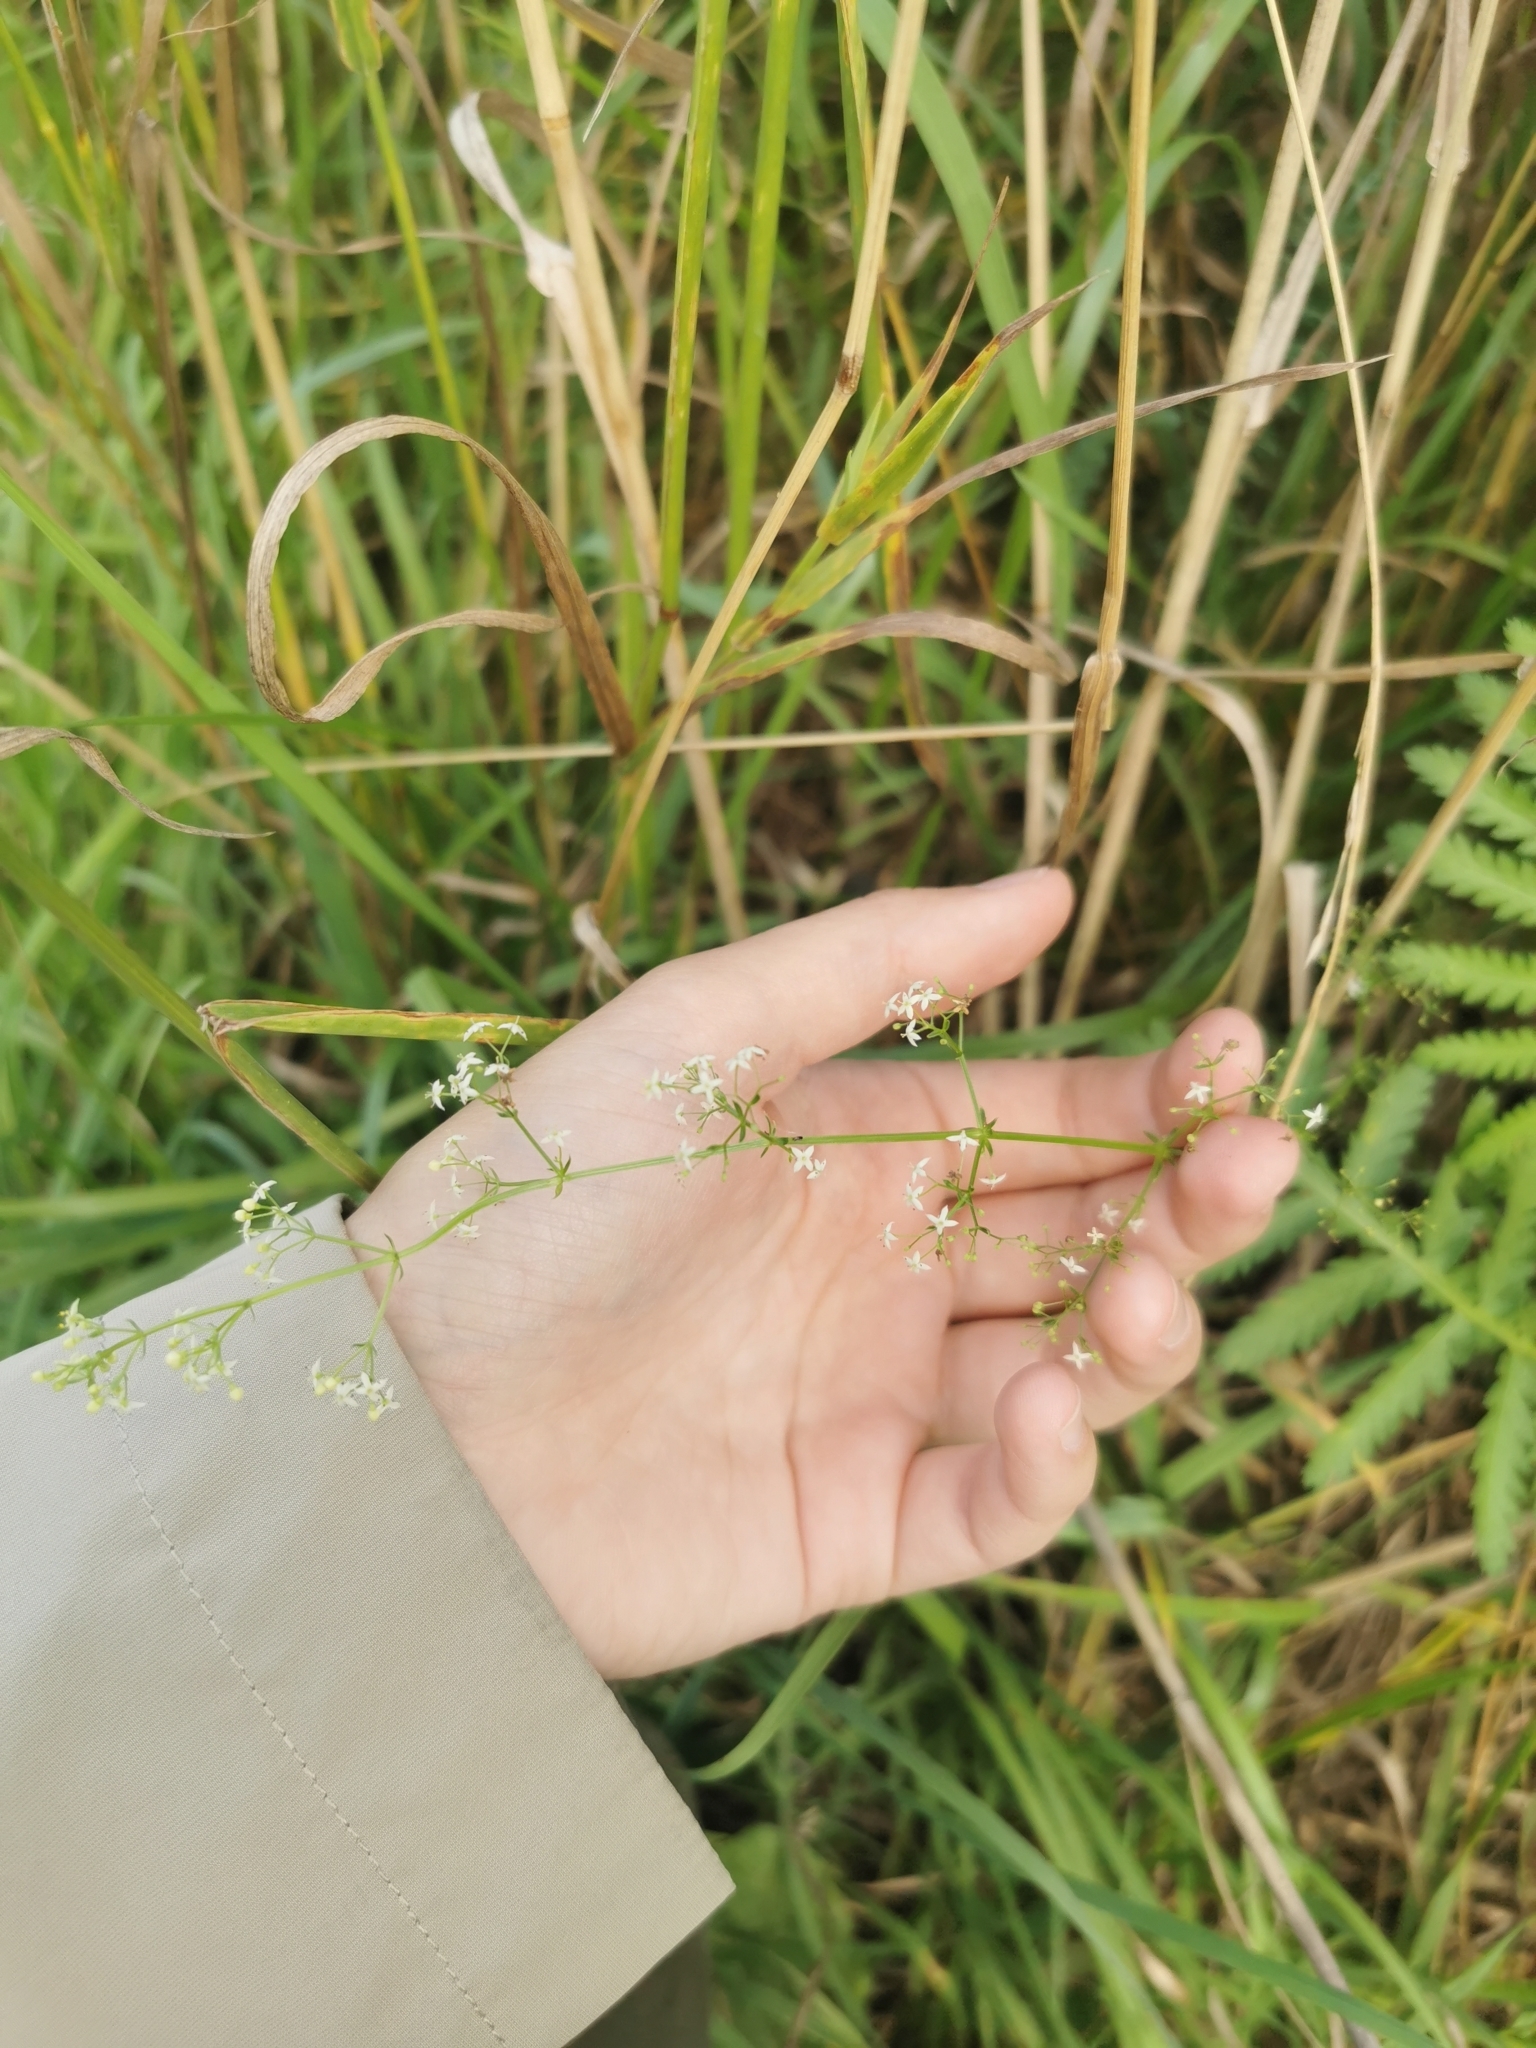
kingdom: Plantae
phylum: Tracheophyta
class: Magnoliopsida
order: Gentianales
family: Rubiaceae
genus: Galium
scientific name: Galium mollugo
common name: Hedge bedstraw
